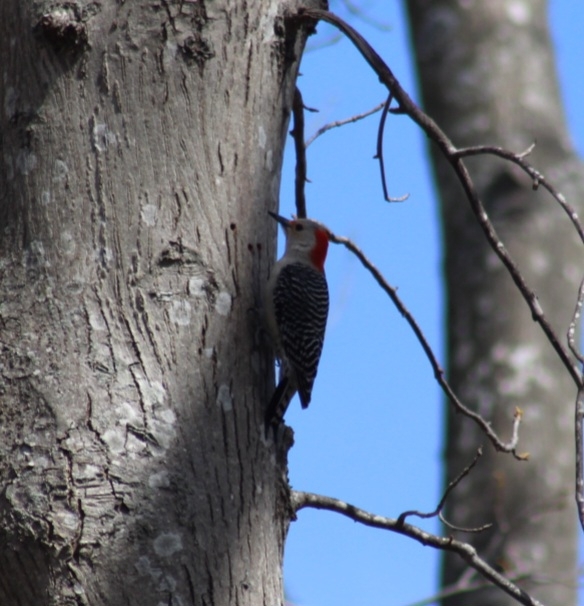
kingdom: Animalia
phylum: Chordata
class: Aves
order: Piciformes
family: Picidae
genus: Melanerpes
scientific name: Melanerpes carolinus
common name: Red-bellied woodpecker
